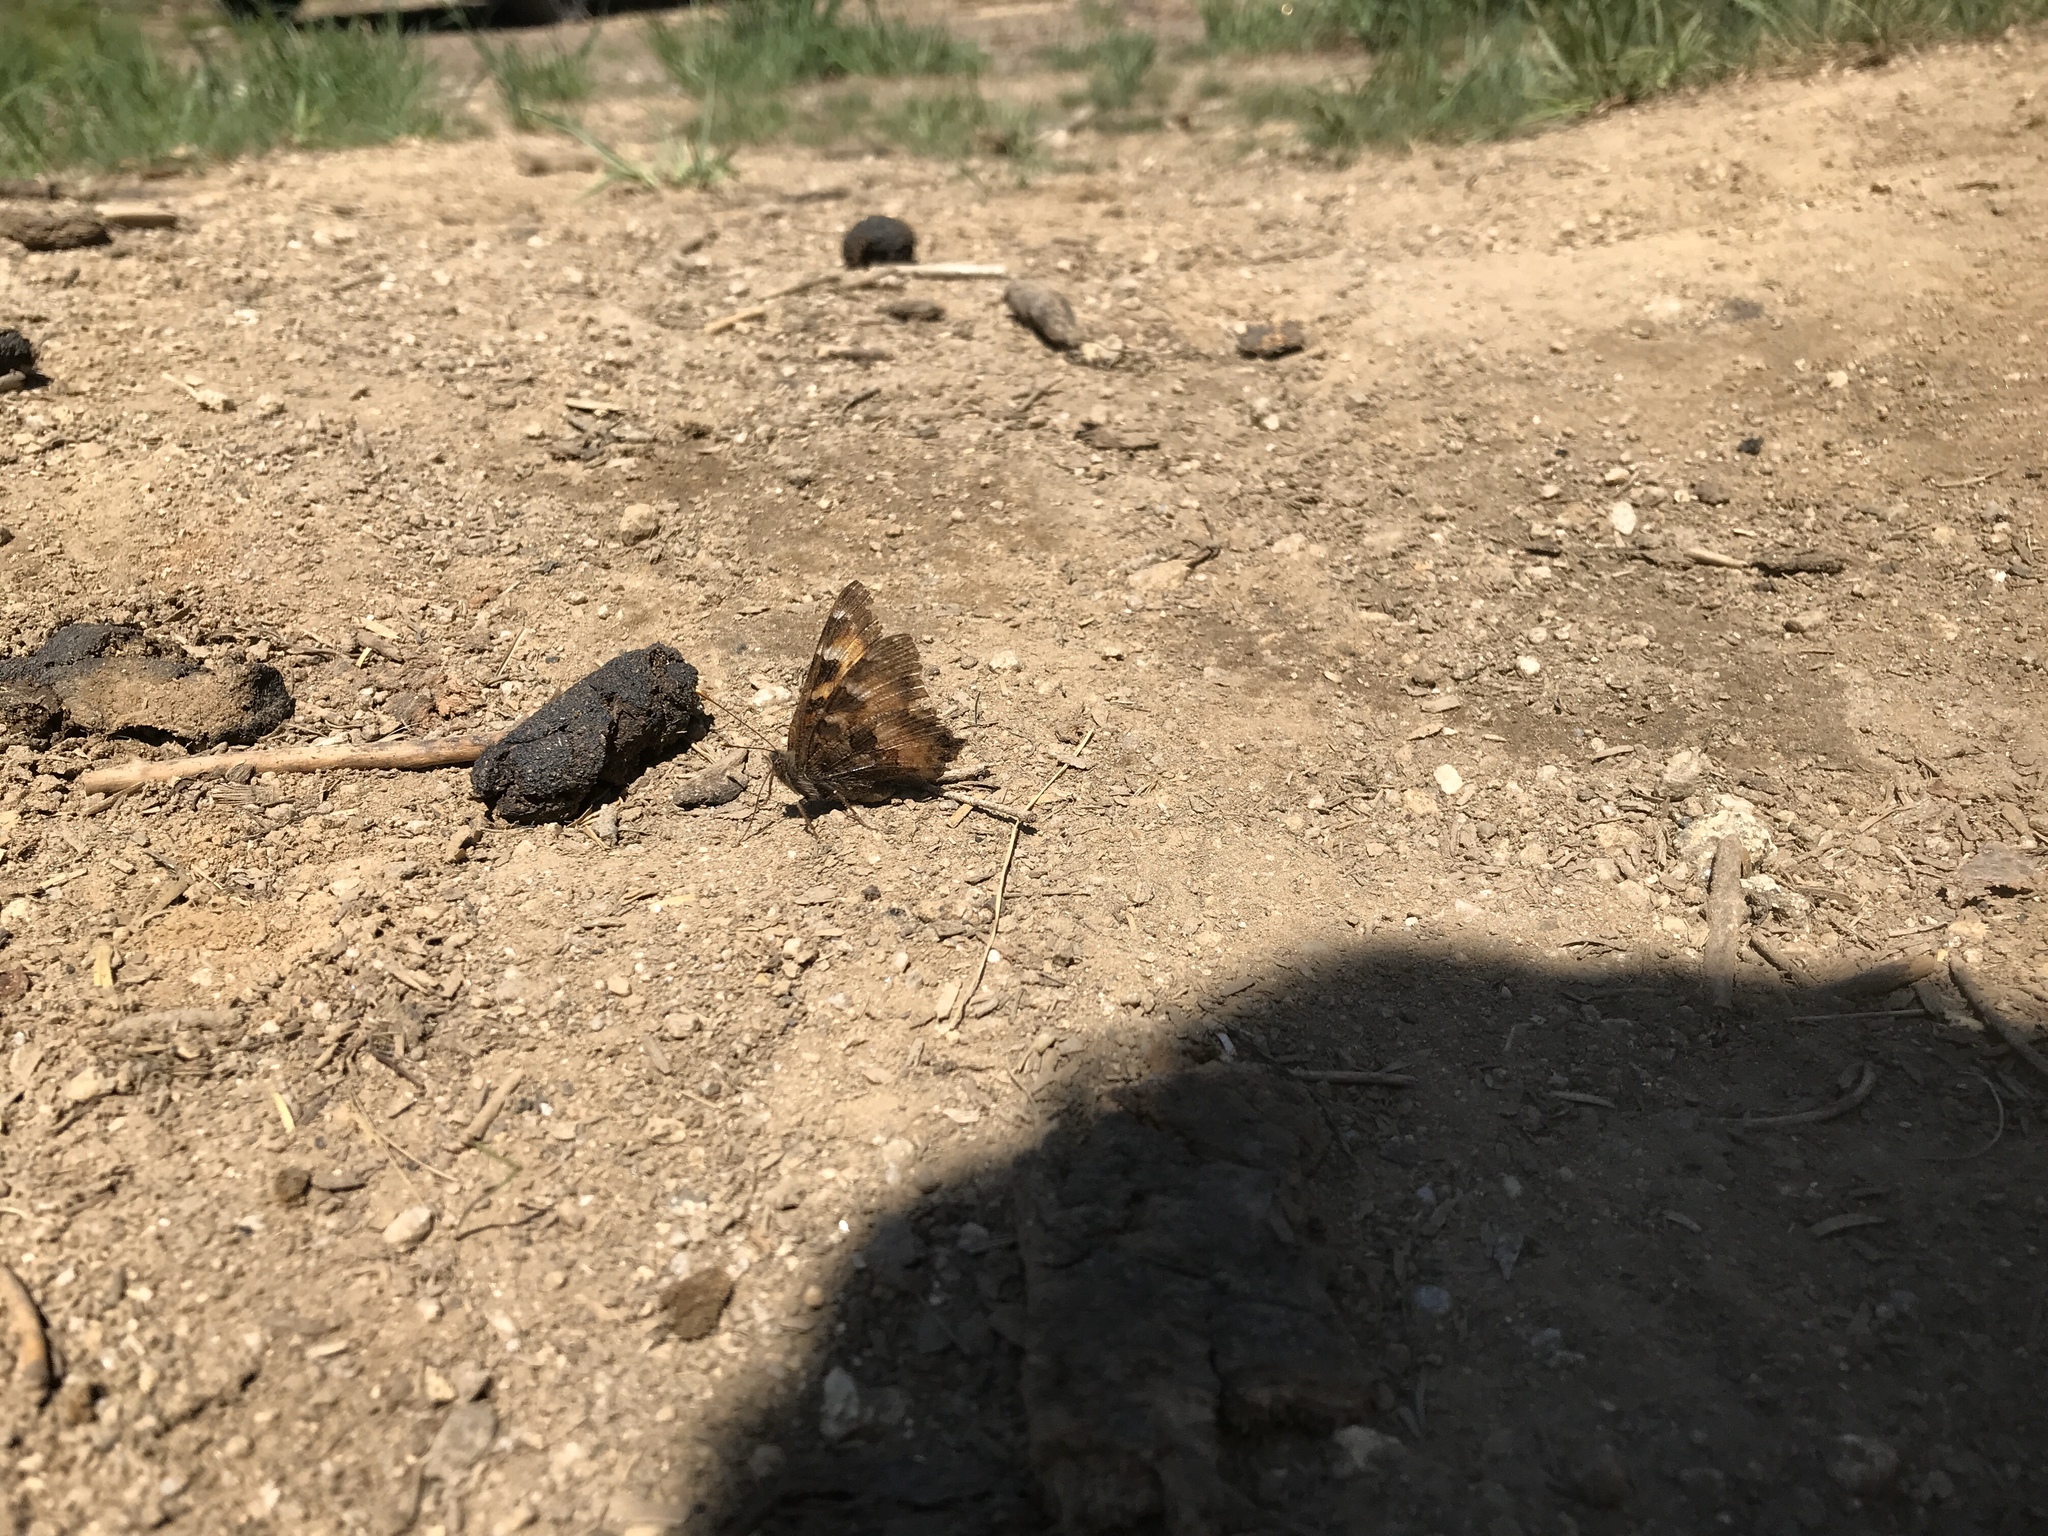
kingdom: Animalia
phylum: Arthropoda
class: Insecta
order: Lepidoptera
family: Nymphalidae
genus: Nymphalis
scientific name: Nymphalis californica
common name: California tortoiseshell
